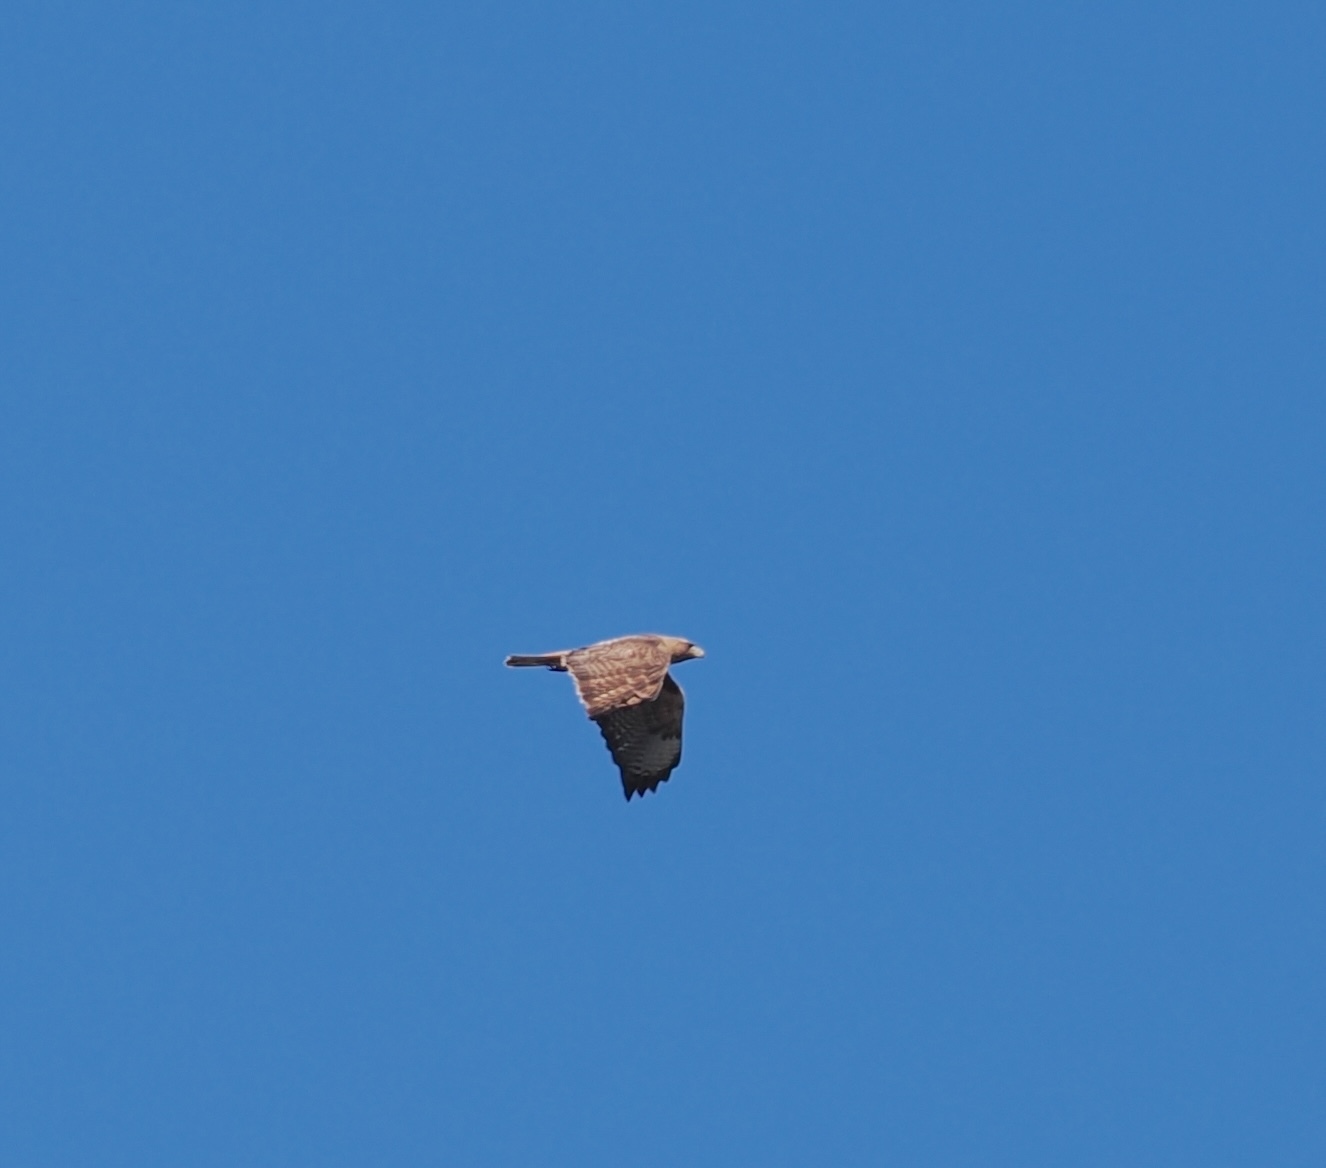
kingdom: Animalia
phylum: Chordata
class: Aves
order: Accipitriformes
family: Accipitridae
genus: Buteo
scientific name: Buteo jamaicensis
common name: Red-tailed hawk
